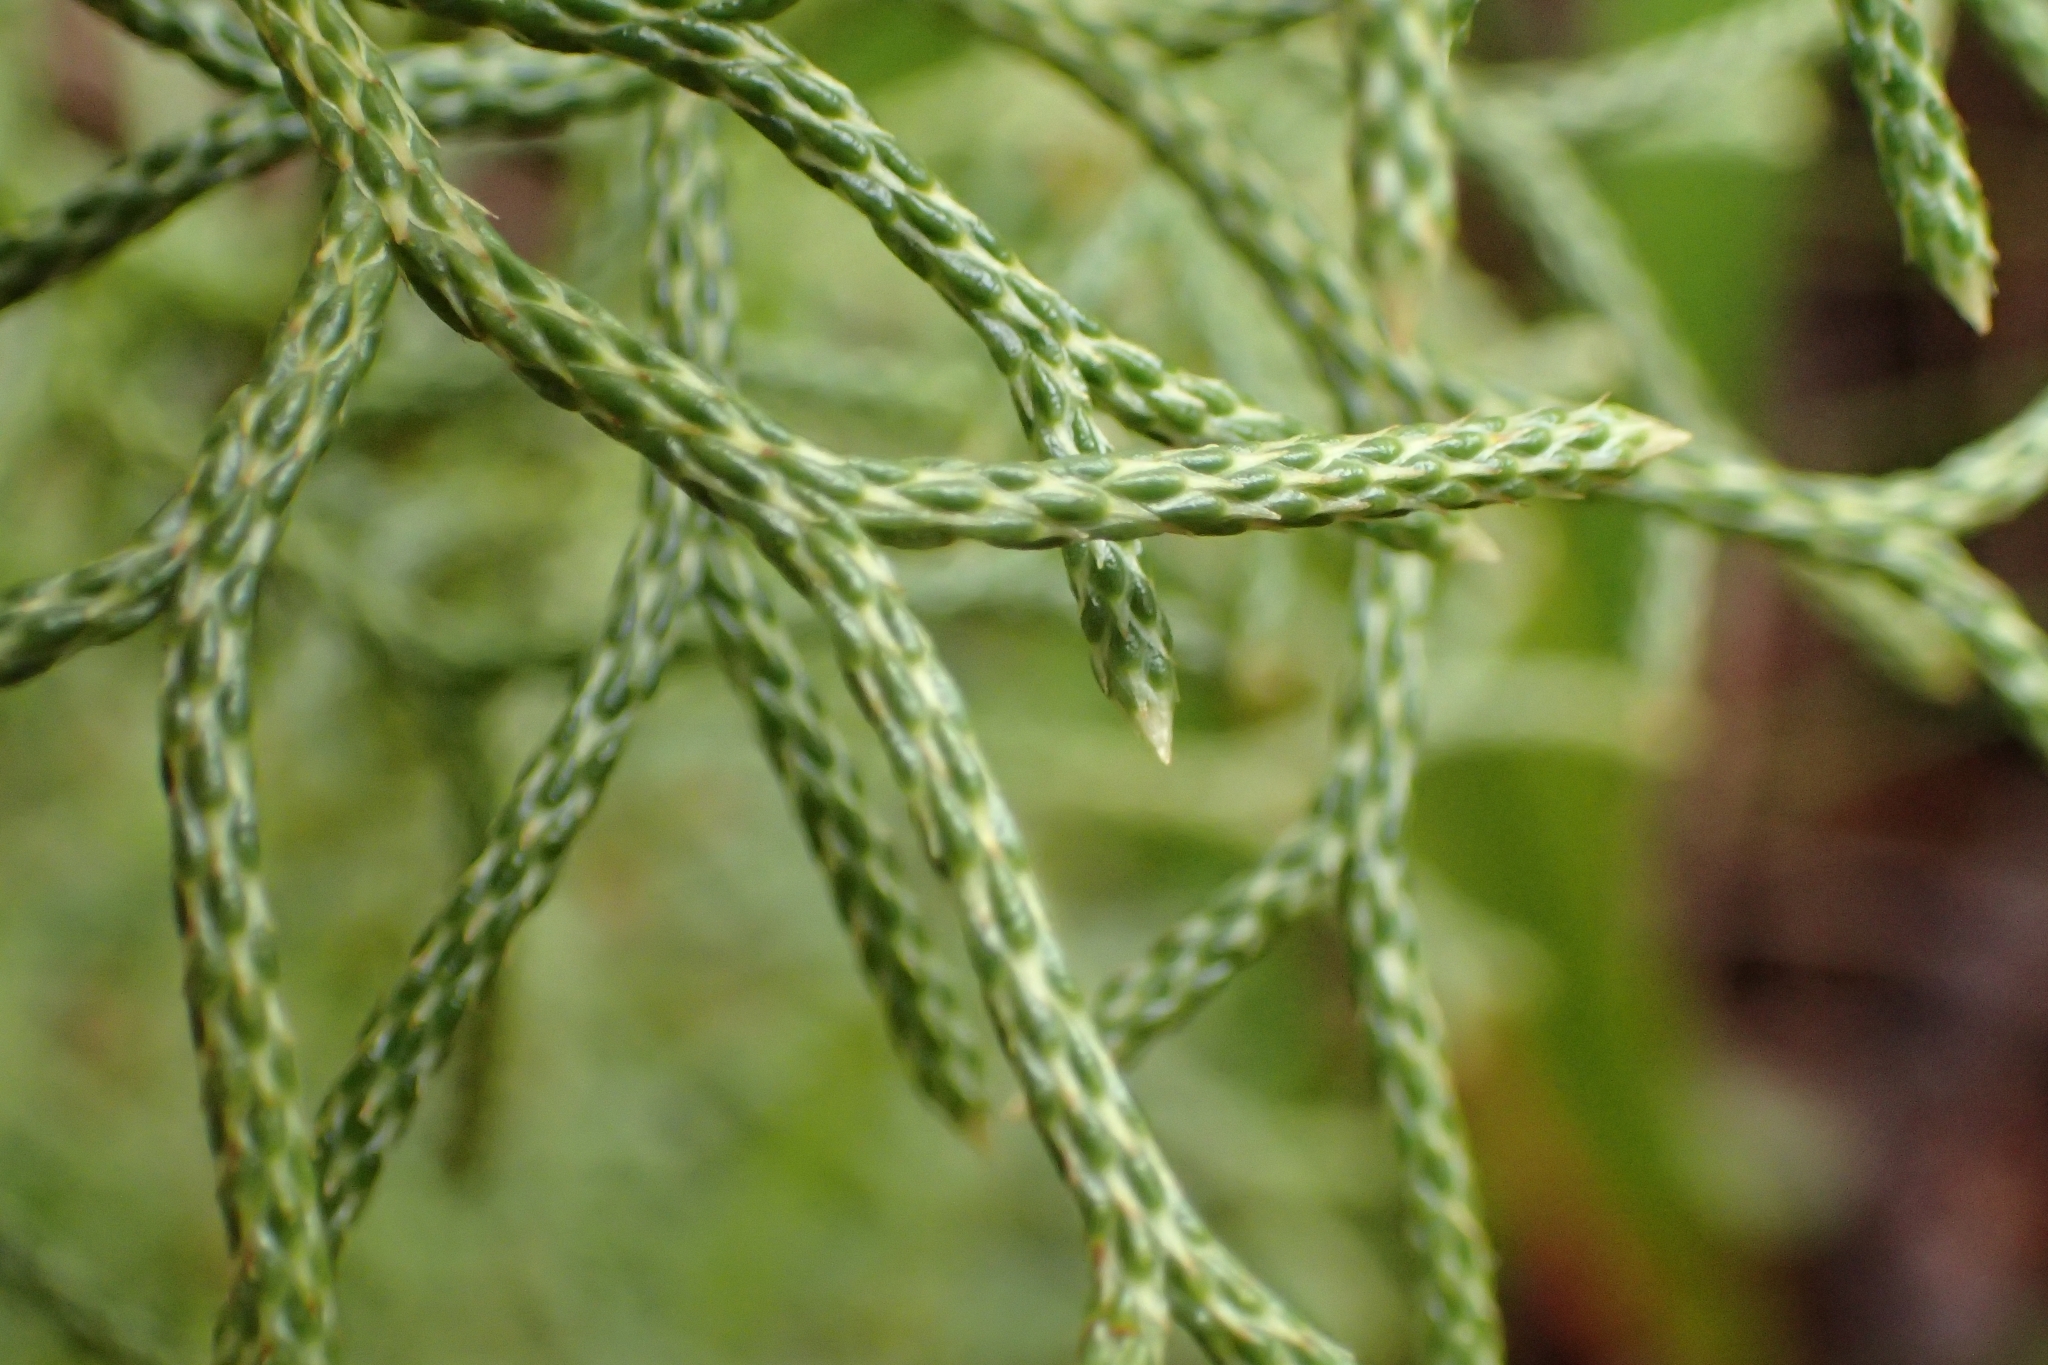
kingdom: Plantae
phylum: Tracheophyta
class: Lycopodiopsida
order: Lycopodiales
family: Lycopodiaceae
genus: Pseudolycopodium
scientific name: Pseudolycopodium densum
